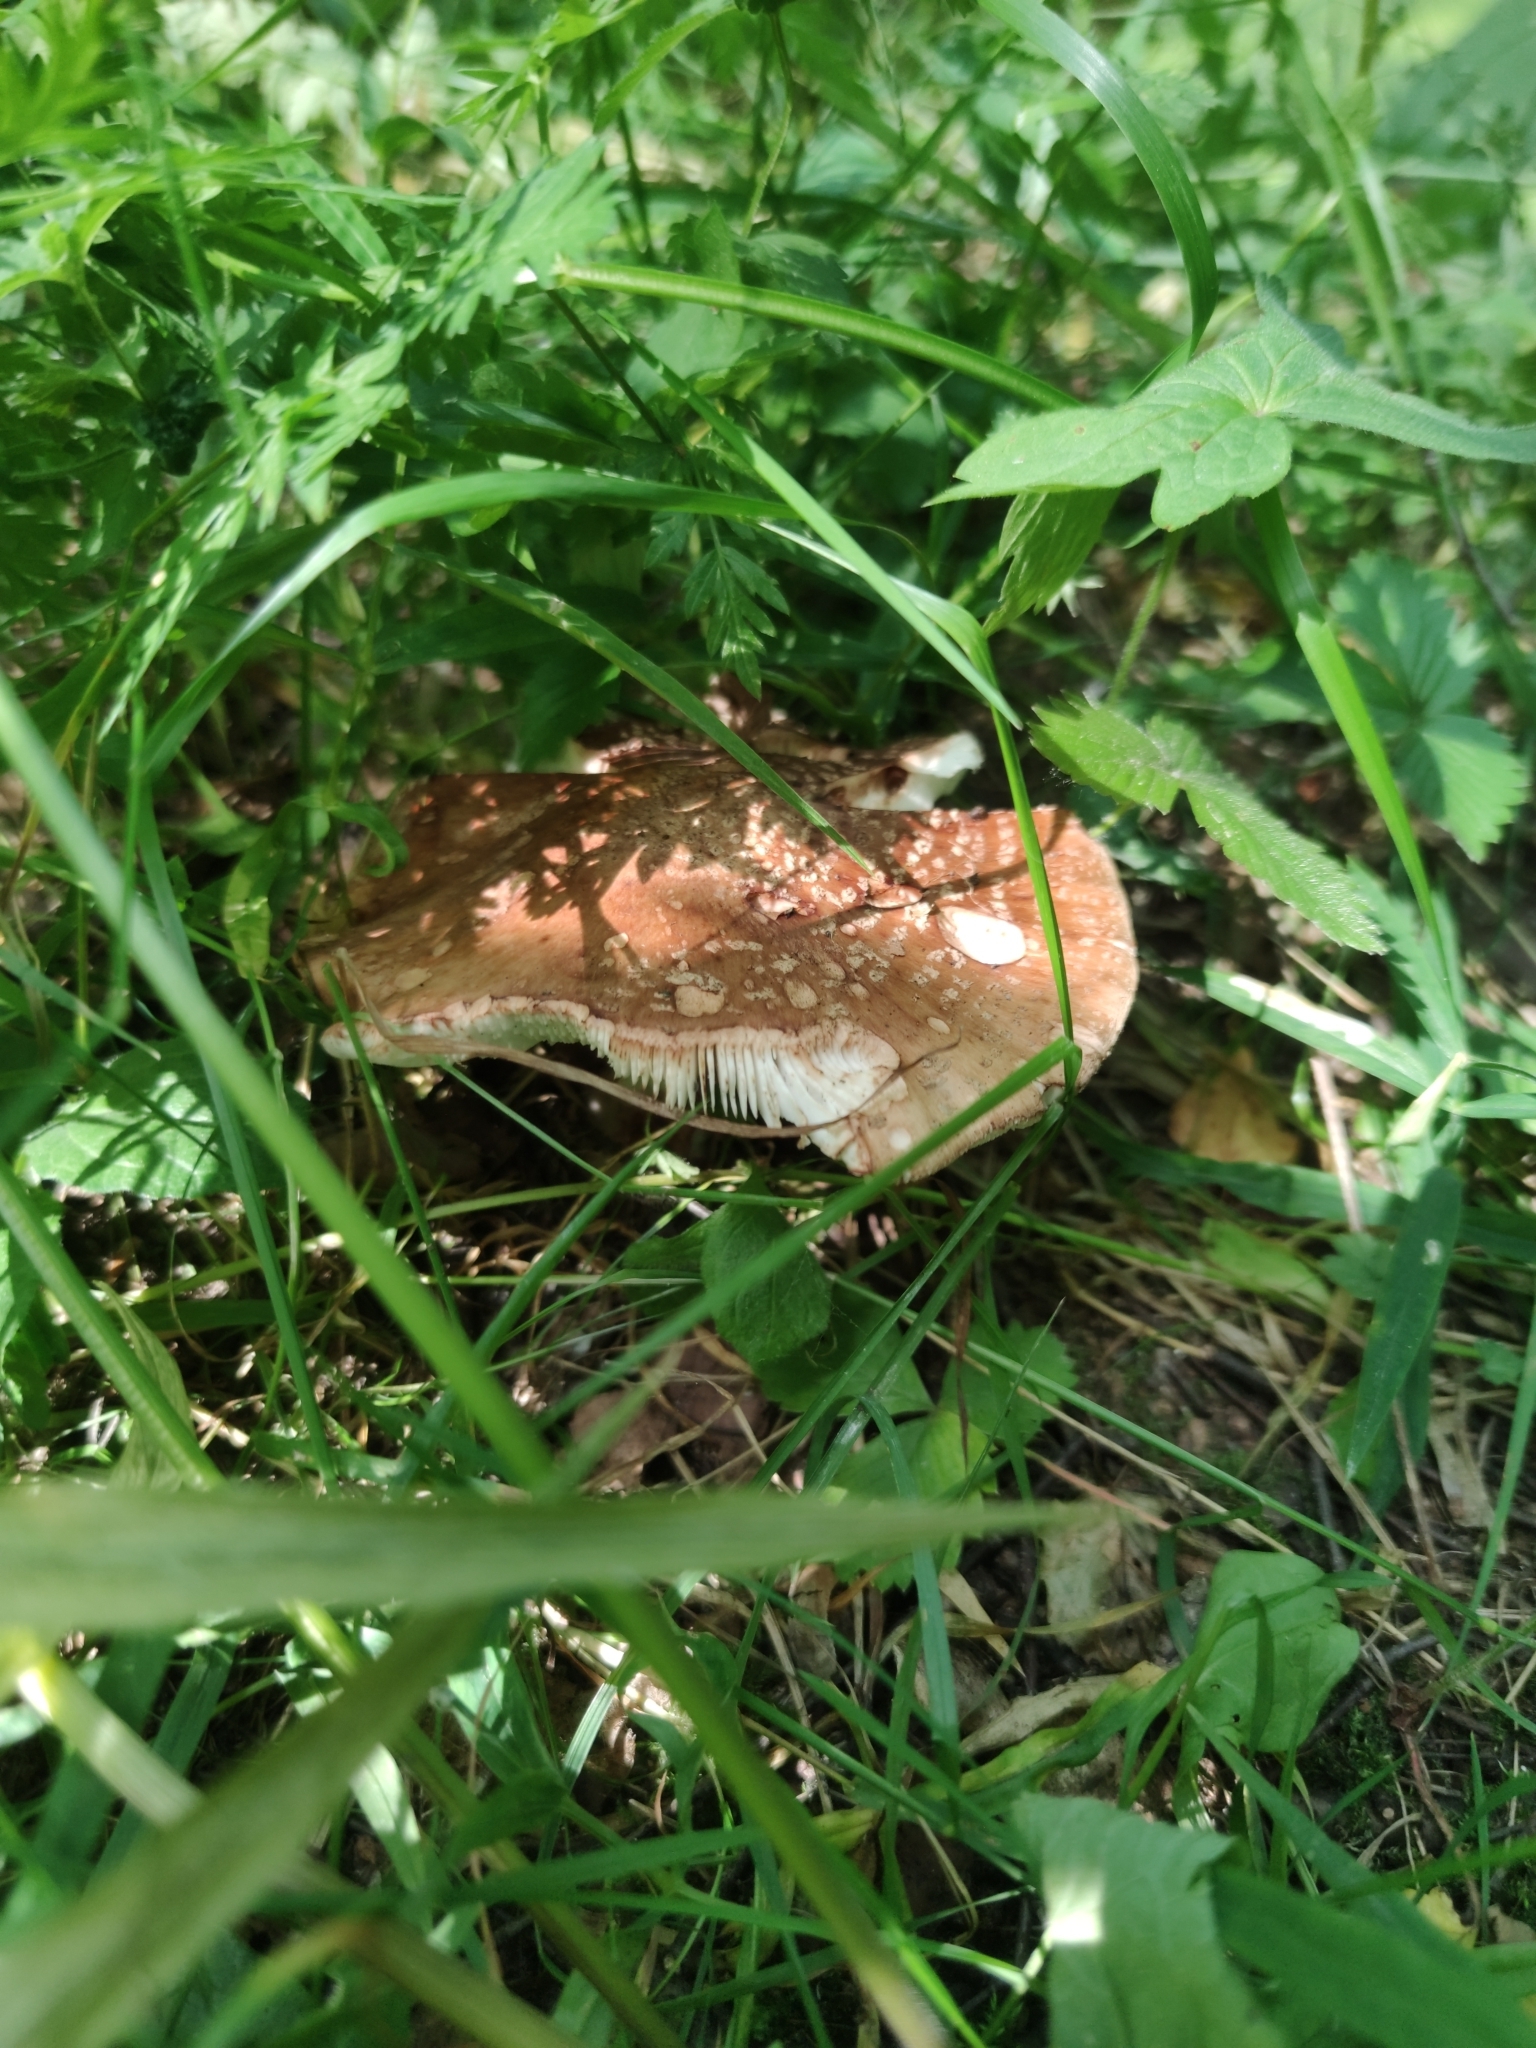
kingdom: Fungi
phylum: Basidiomycota
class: Agaricomycetes
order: Agaricales
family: Amanitaceae
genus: Amanita
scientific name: Amanita rubescens
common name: Blusher
